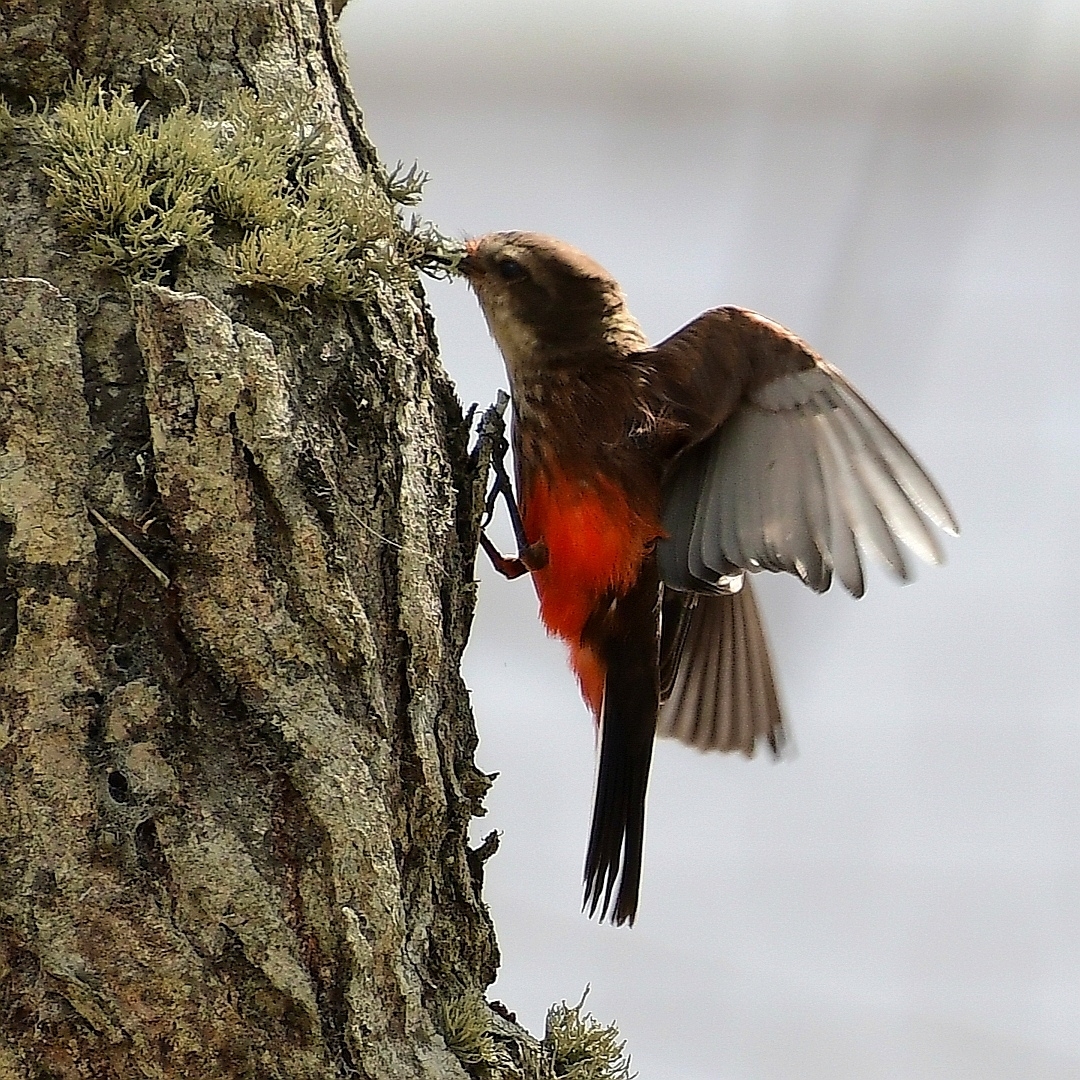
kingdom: Animalia
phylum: Chordata
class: Aves
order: Passeriformes
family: Tyrannidae
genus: Pyrocephalus
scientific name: Pyrocephalus rubinus
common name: Vermilion flycatcher
